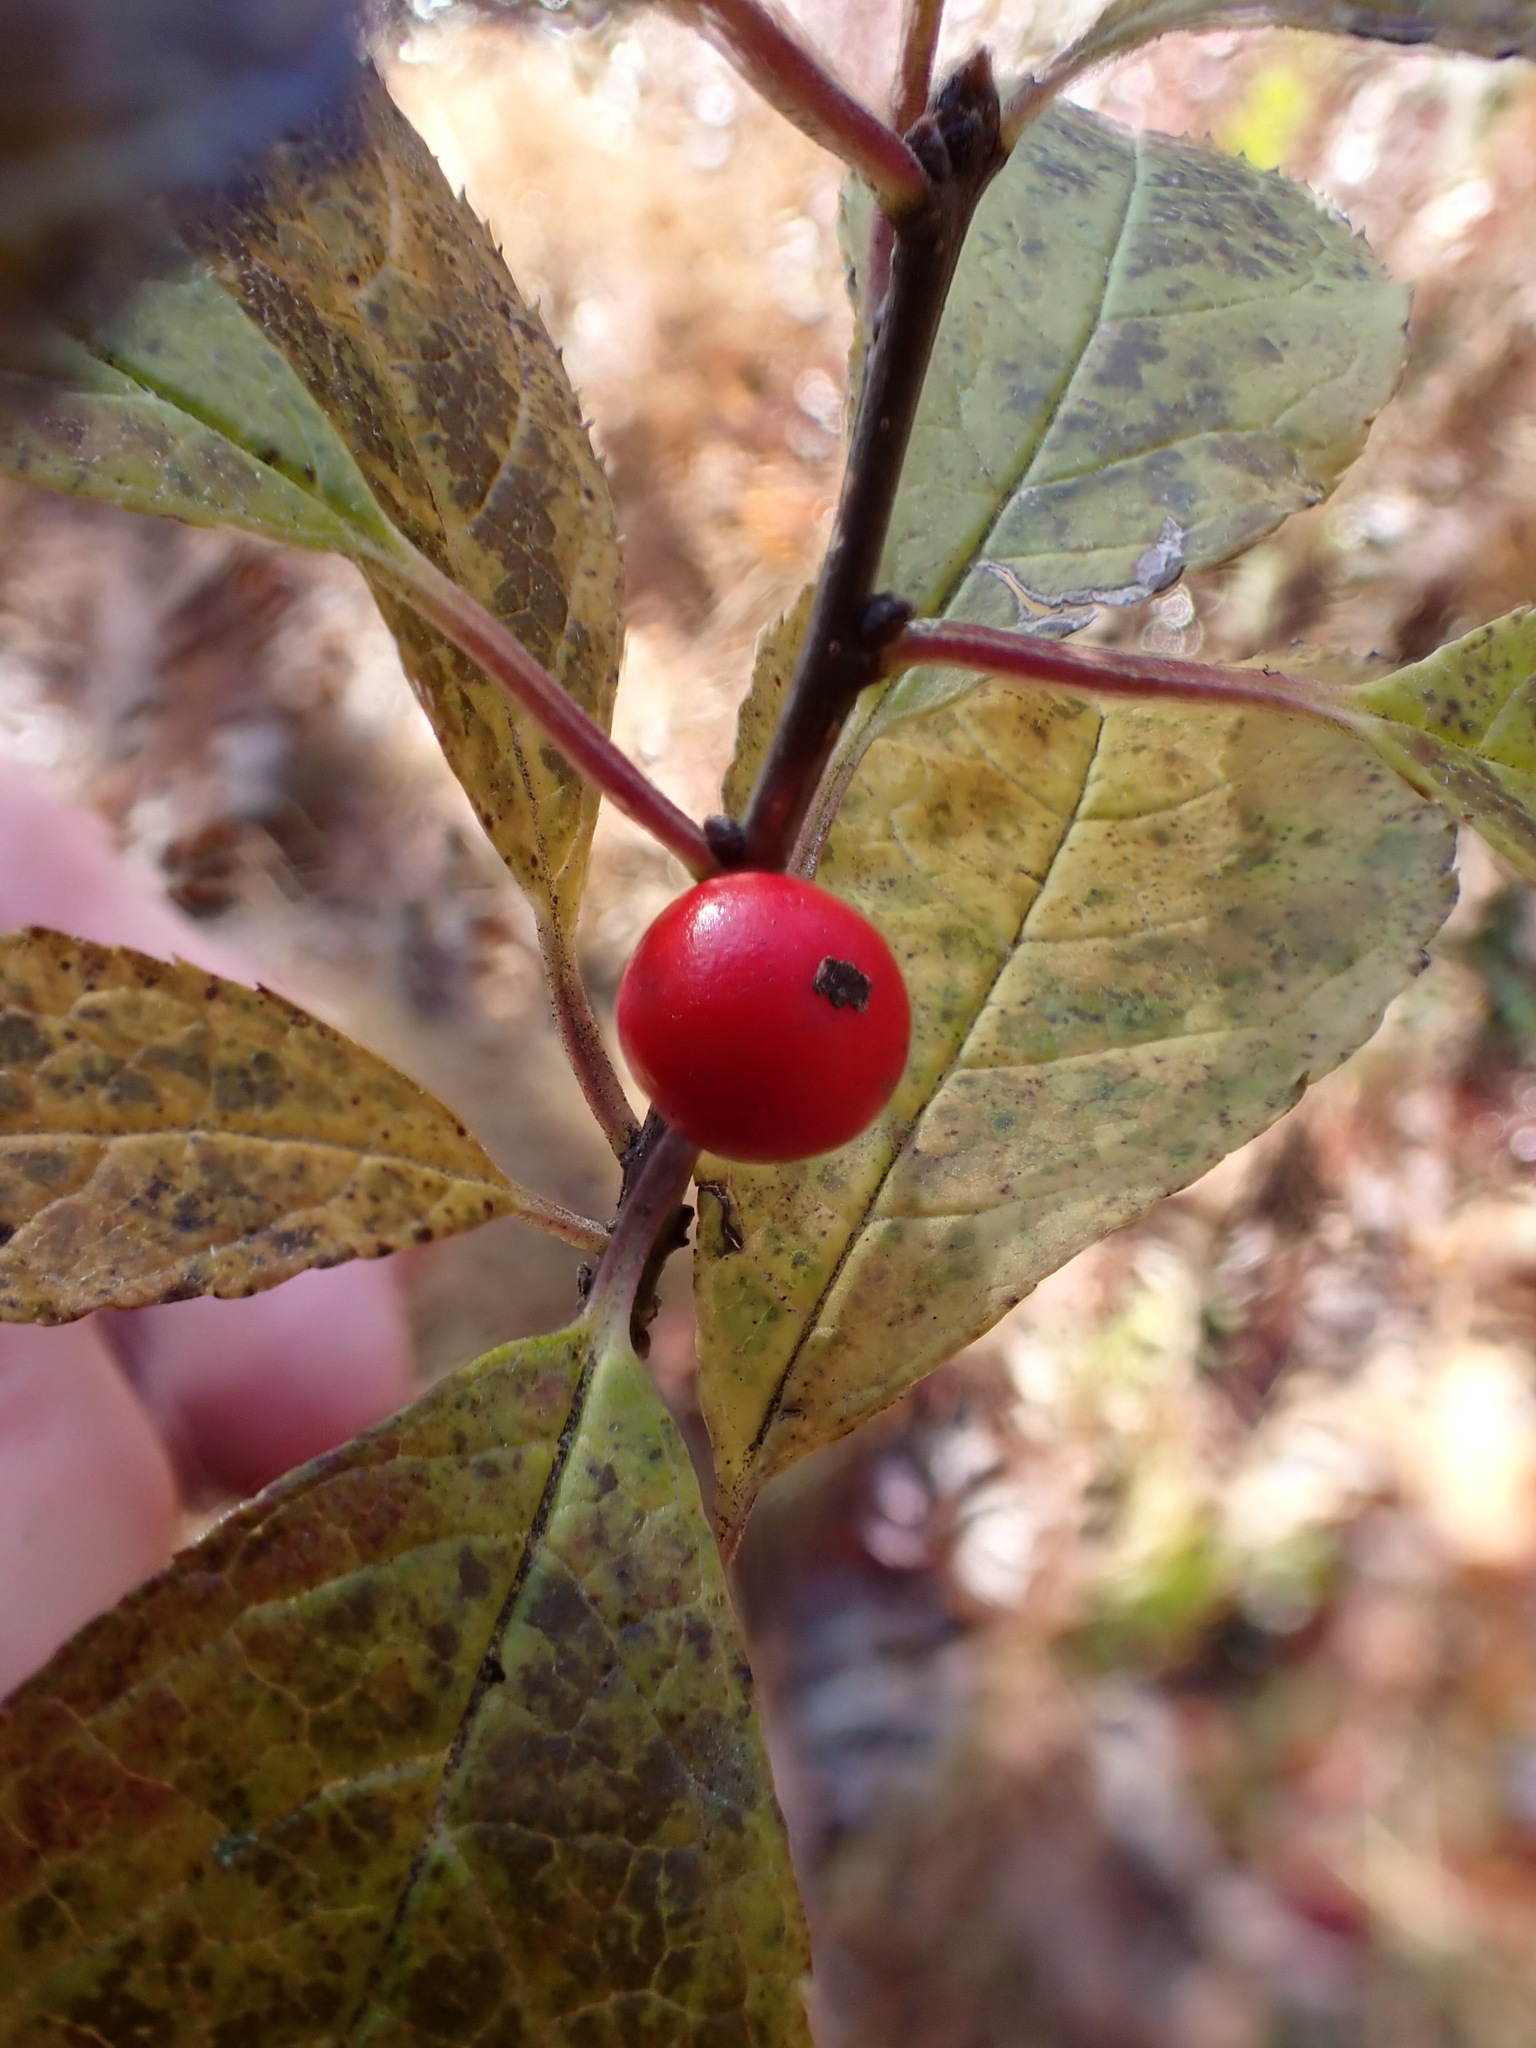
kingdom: Plantae
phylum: Tracheophyta
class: Magnoliopsida
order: Aquifoliales
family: Aquifoliaceae
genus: Ilex
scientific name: Ilex verticillata
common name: Virginia winterberry
